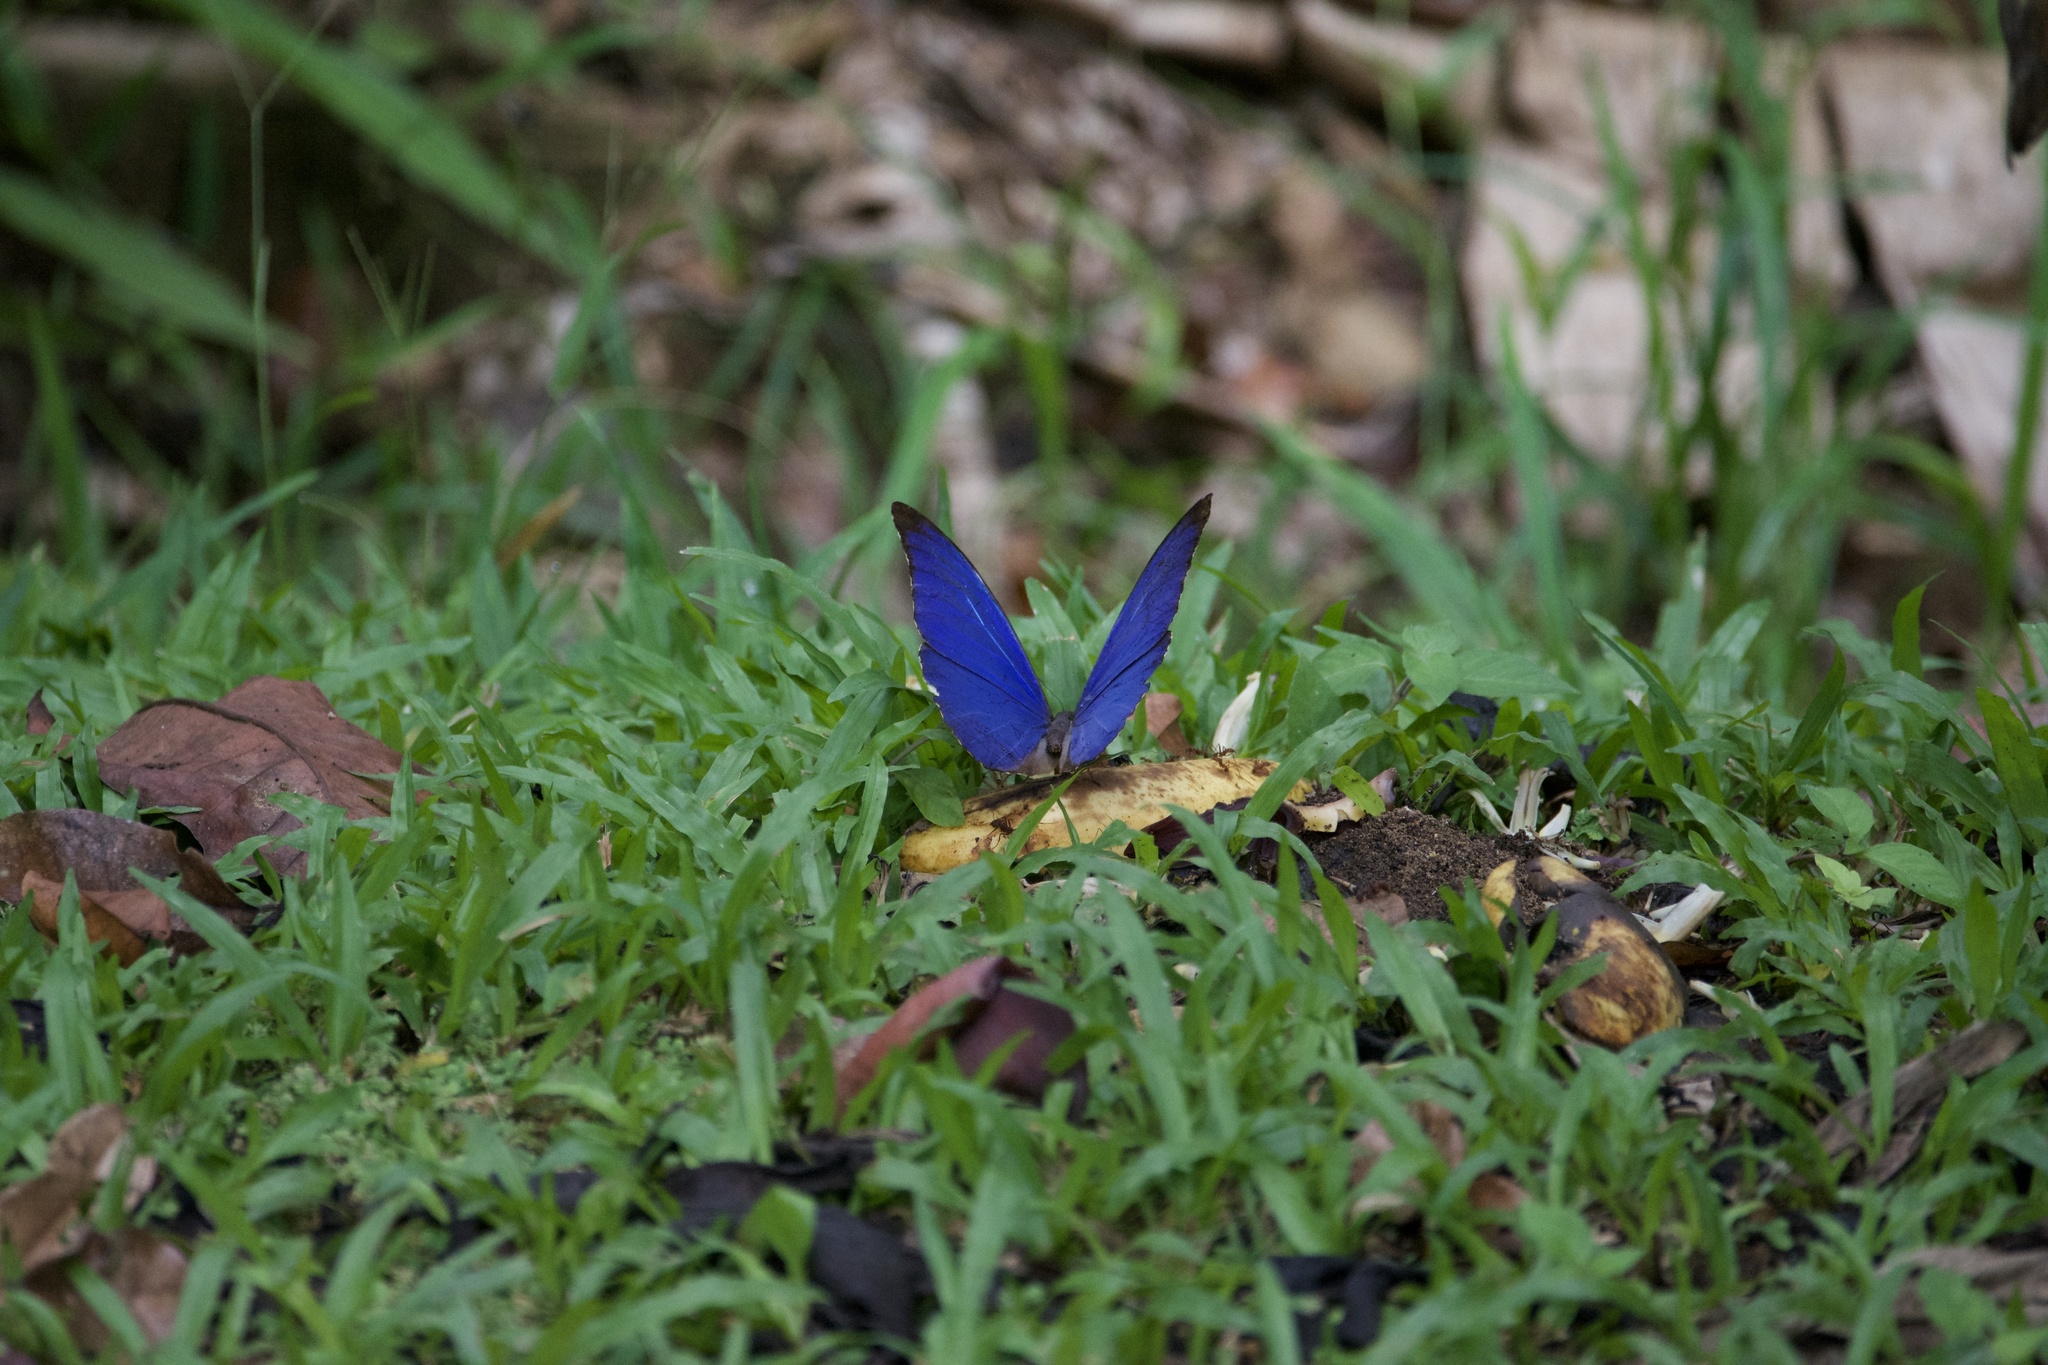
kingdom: Animalia
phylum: Arthropoda
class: Insecta
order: Lepidoptera
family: Nymphalidae
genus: Morpho
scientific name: Morpho amathonte
